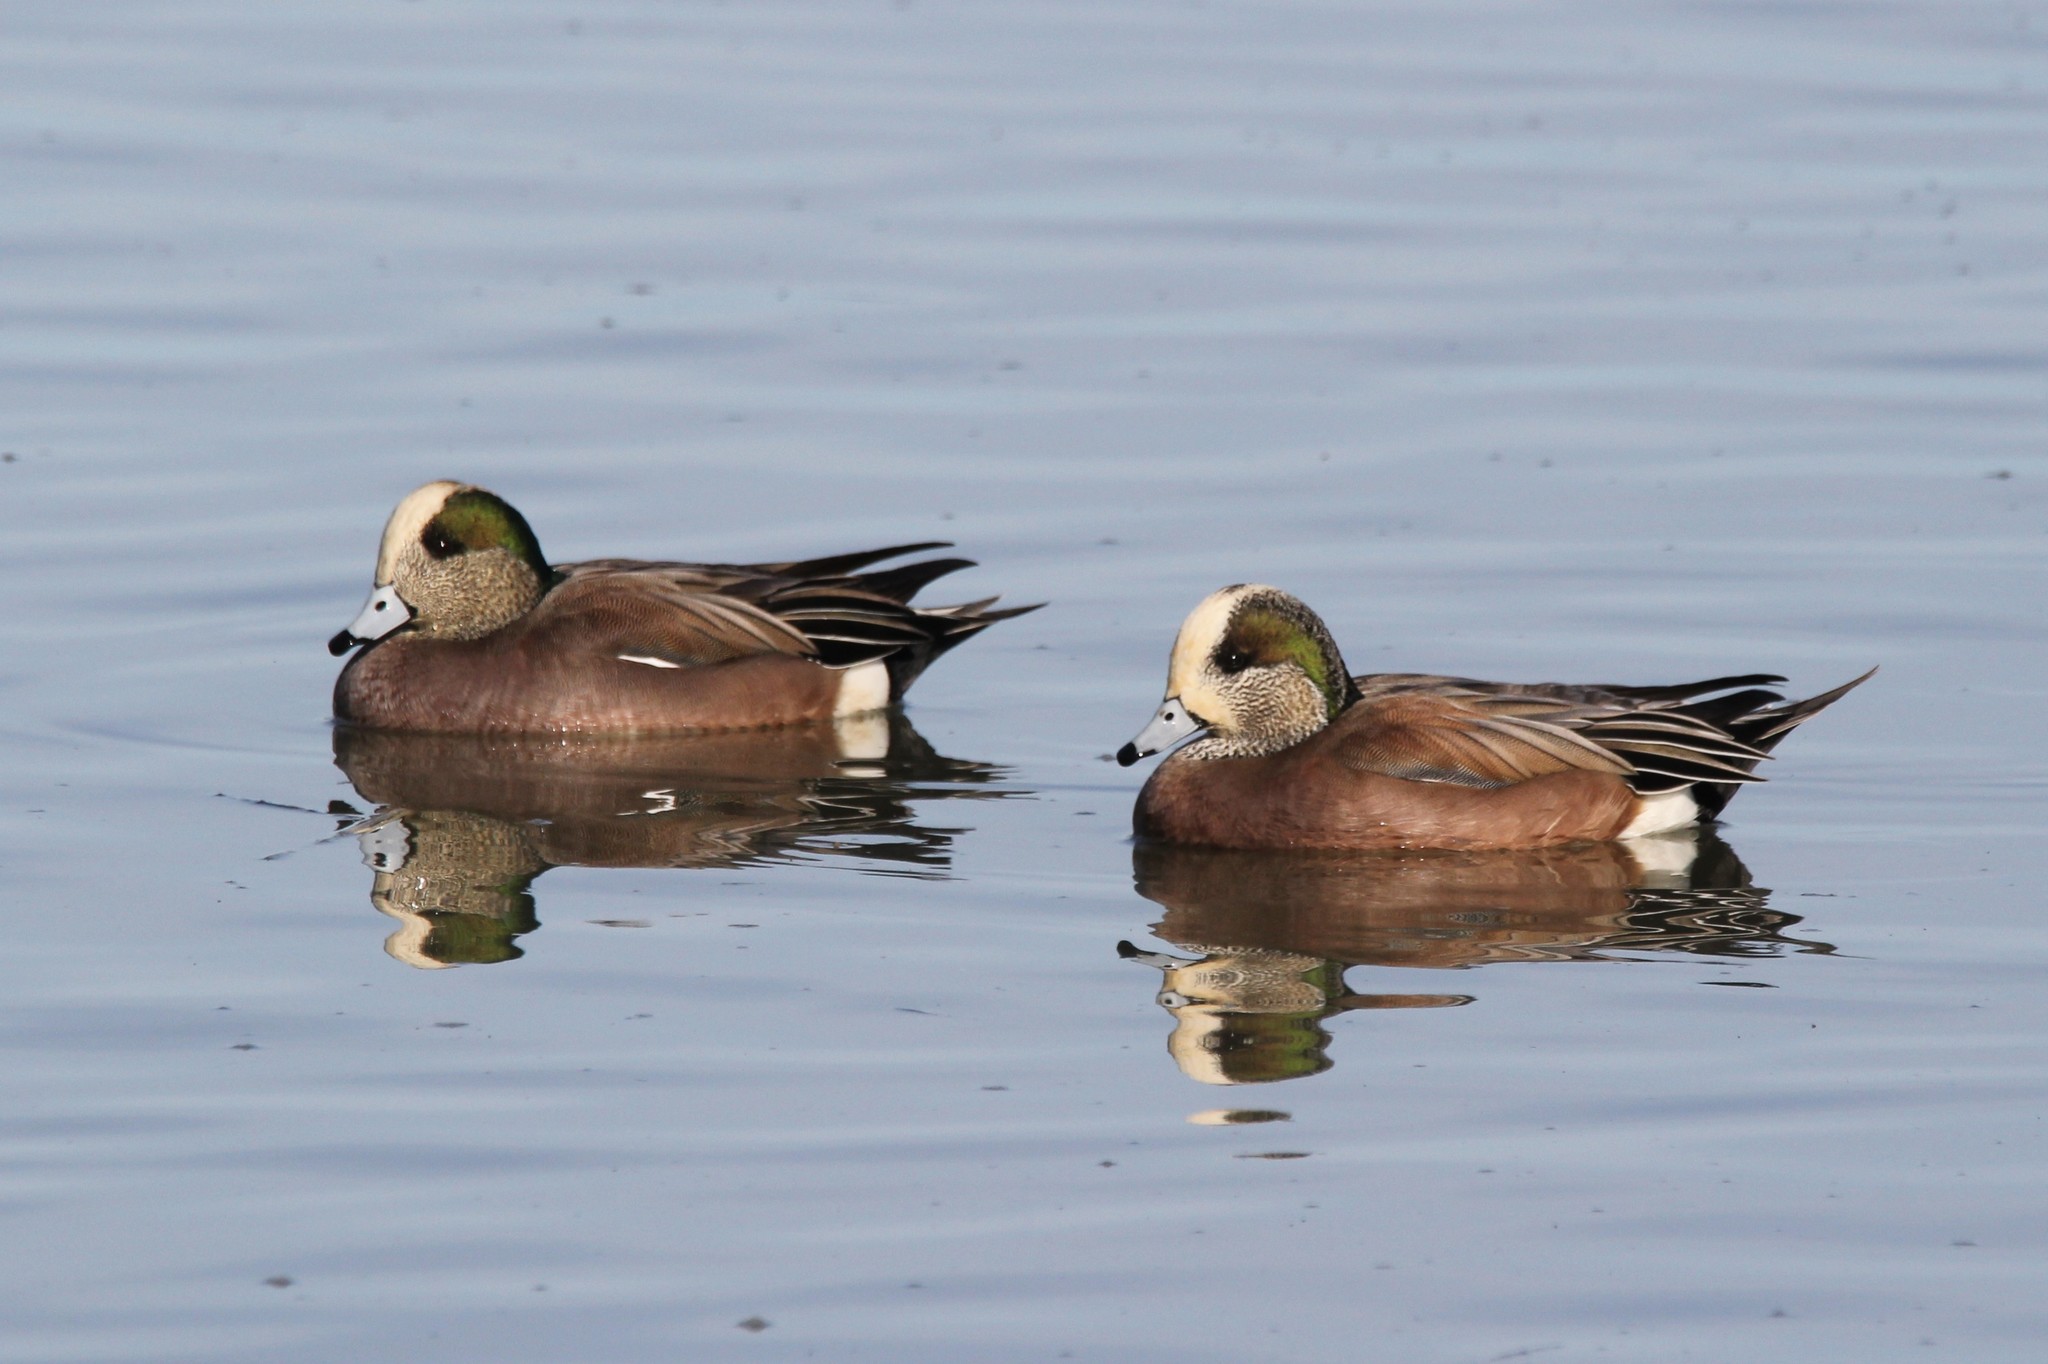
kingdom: Animalia
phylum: Chordata
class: Aves
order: Anseriformes
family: Anatidae
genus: Mareca
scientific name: Mareca americana
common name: American wigeon
